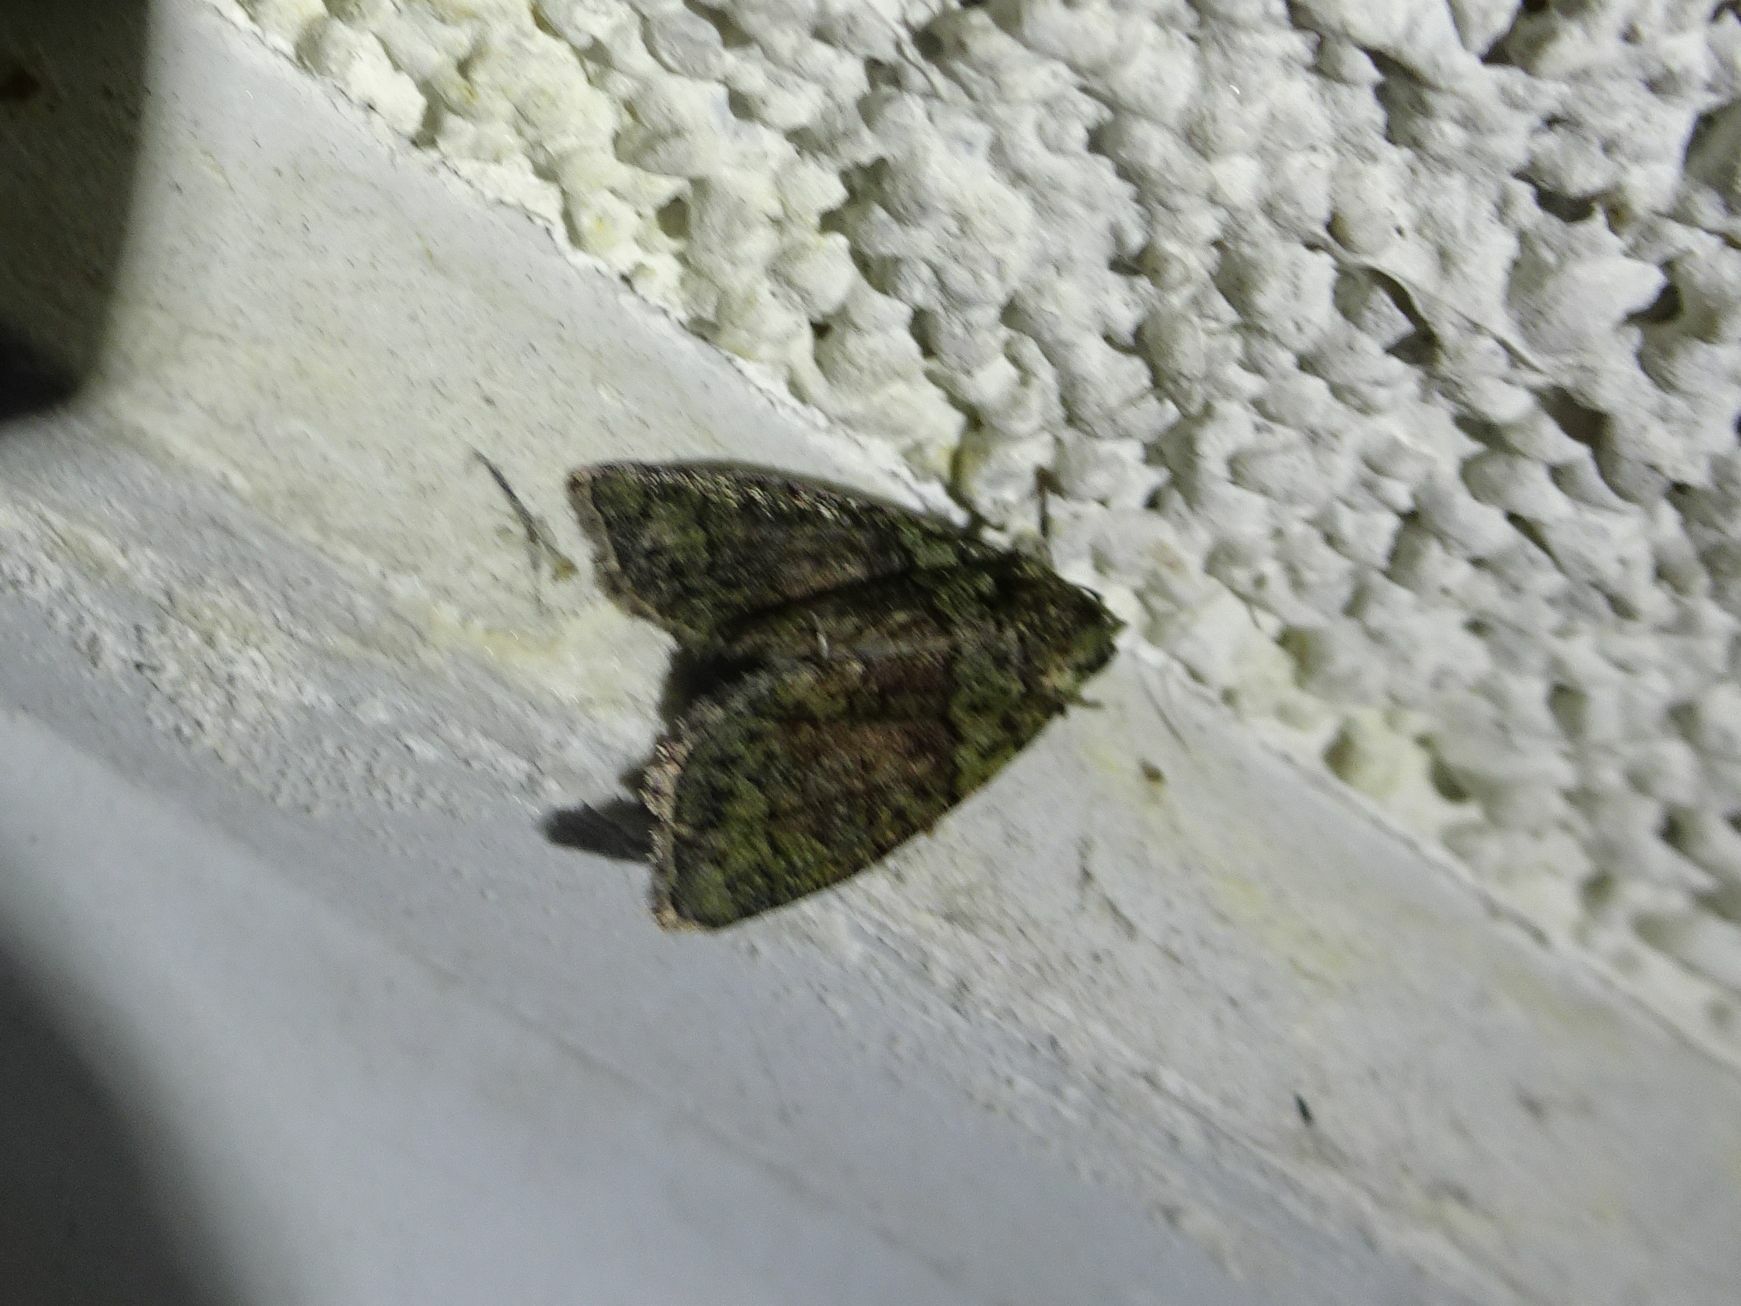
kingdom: Animalia
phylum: Arthropoda
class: Insecta
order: Lepidoptera
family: Noctuidae
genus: Cryphia
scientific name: Cryphia algae
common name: Tree-lichen beauty
